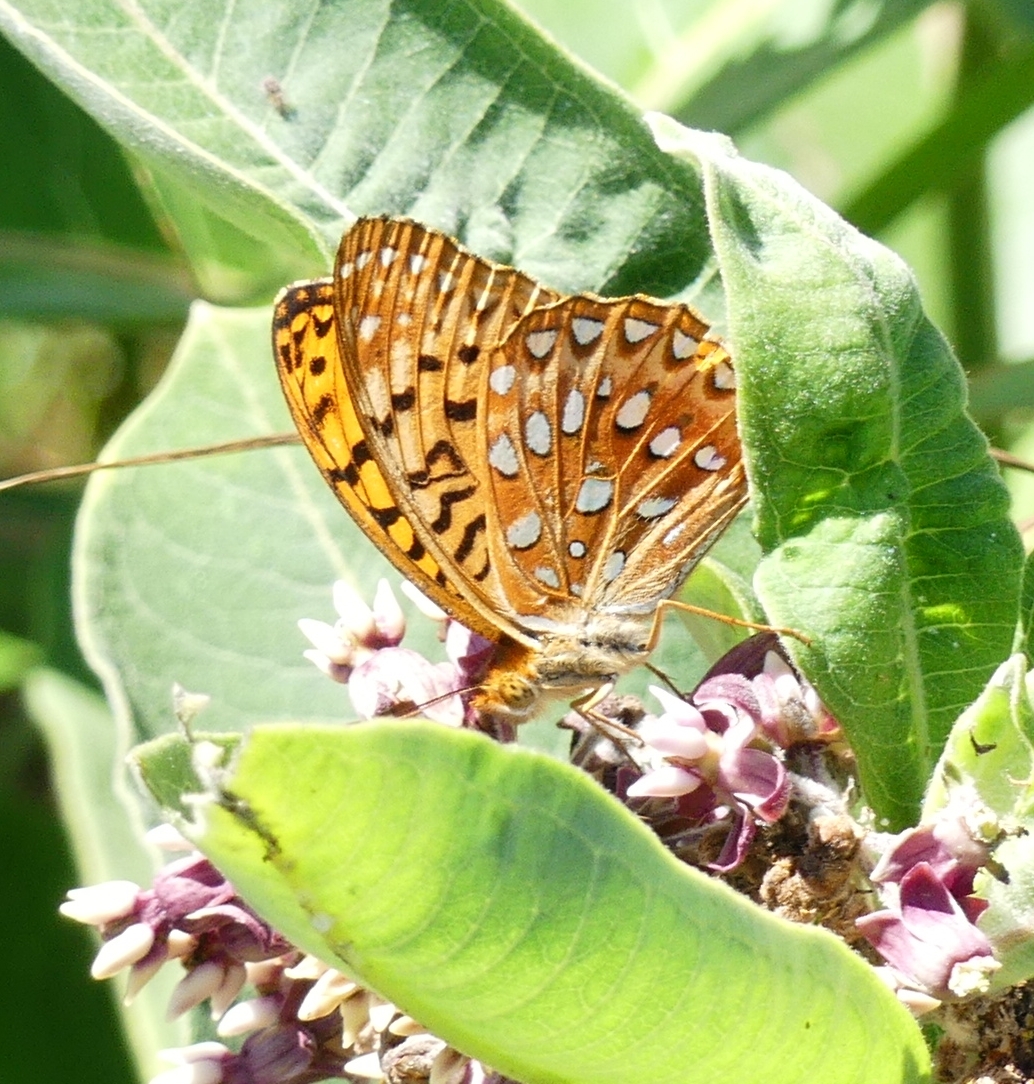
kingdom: Animalia
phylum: Arthropoda
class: Insecta
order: Lepidoptera
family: Nymphalidae
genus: Speyeria
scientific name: Speyeria aphrodite
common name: Aphrodite friitllary
